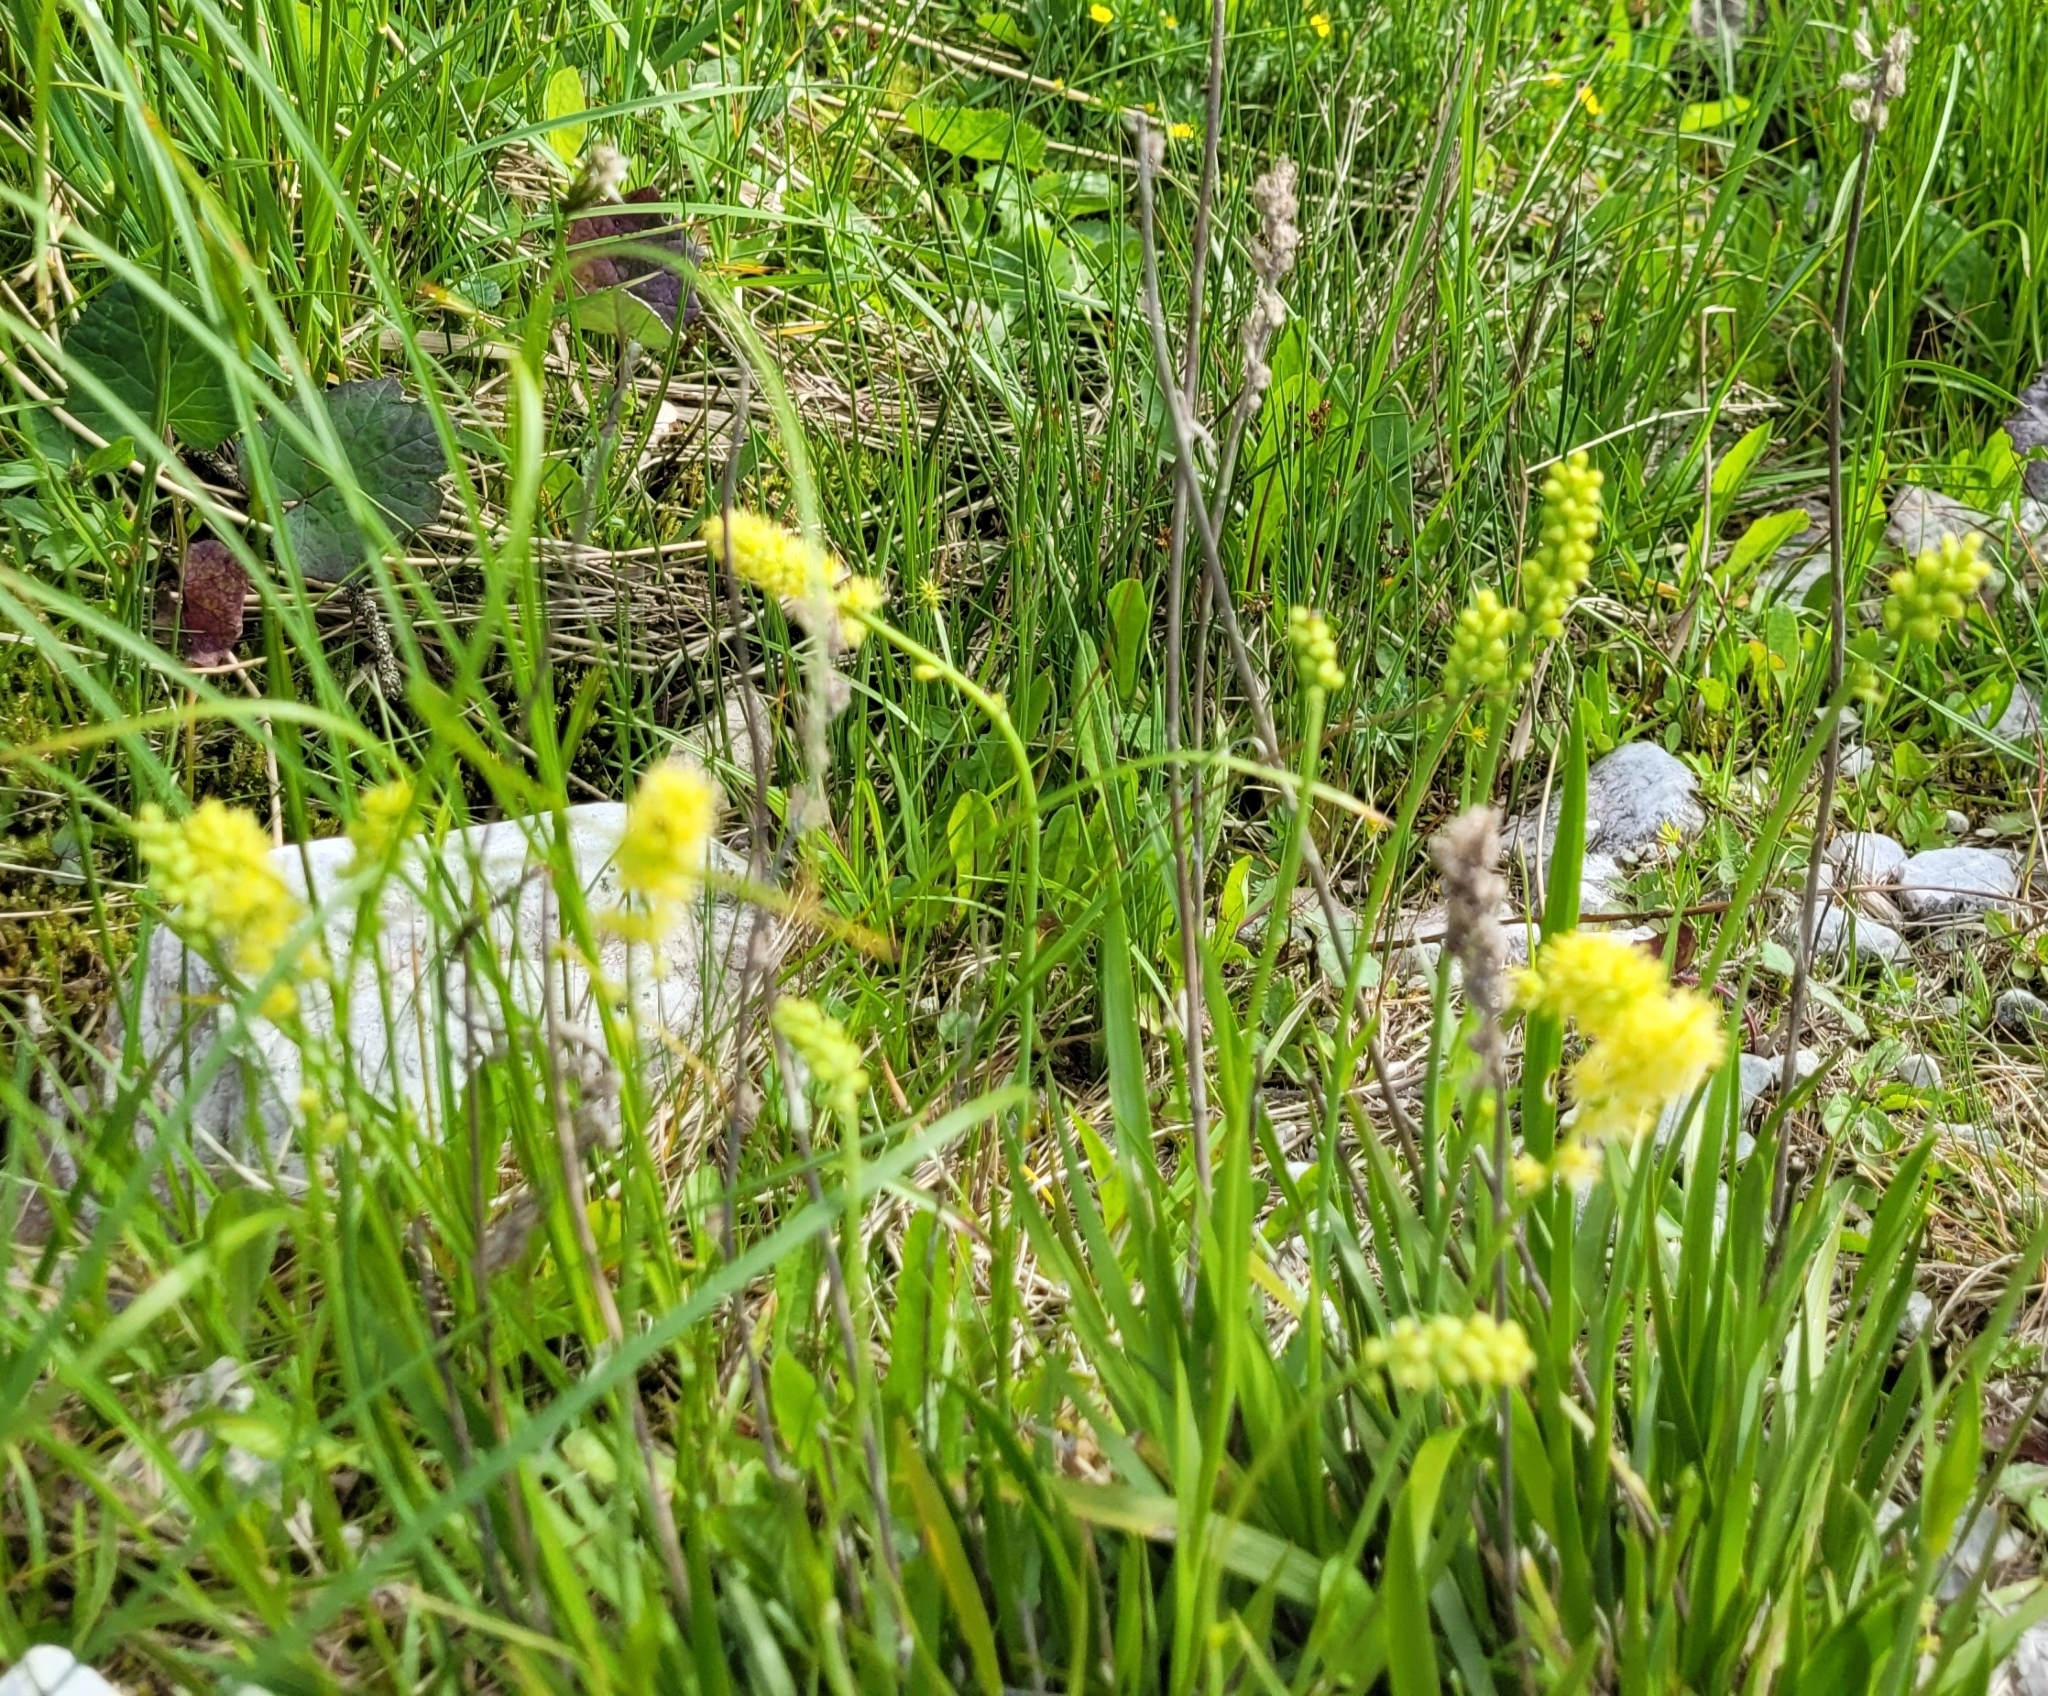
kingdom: Plantae
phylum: Tracheophyta
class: Liliopsida
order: Alismatales
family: Tofieldiaceae
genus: Tofieldia
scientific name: Tofieldia calyculata
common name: German-asphodel
